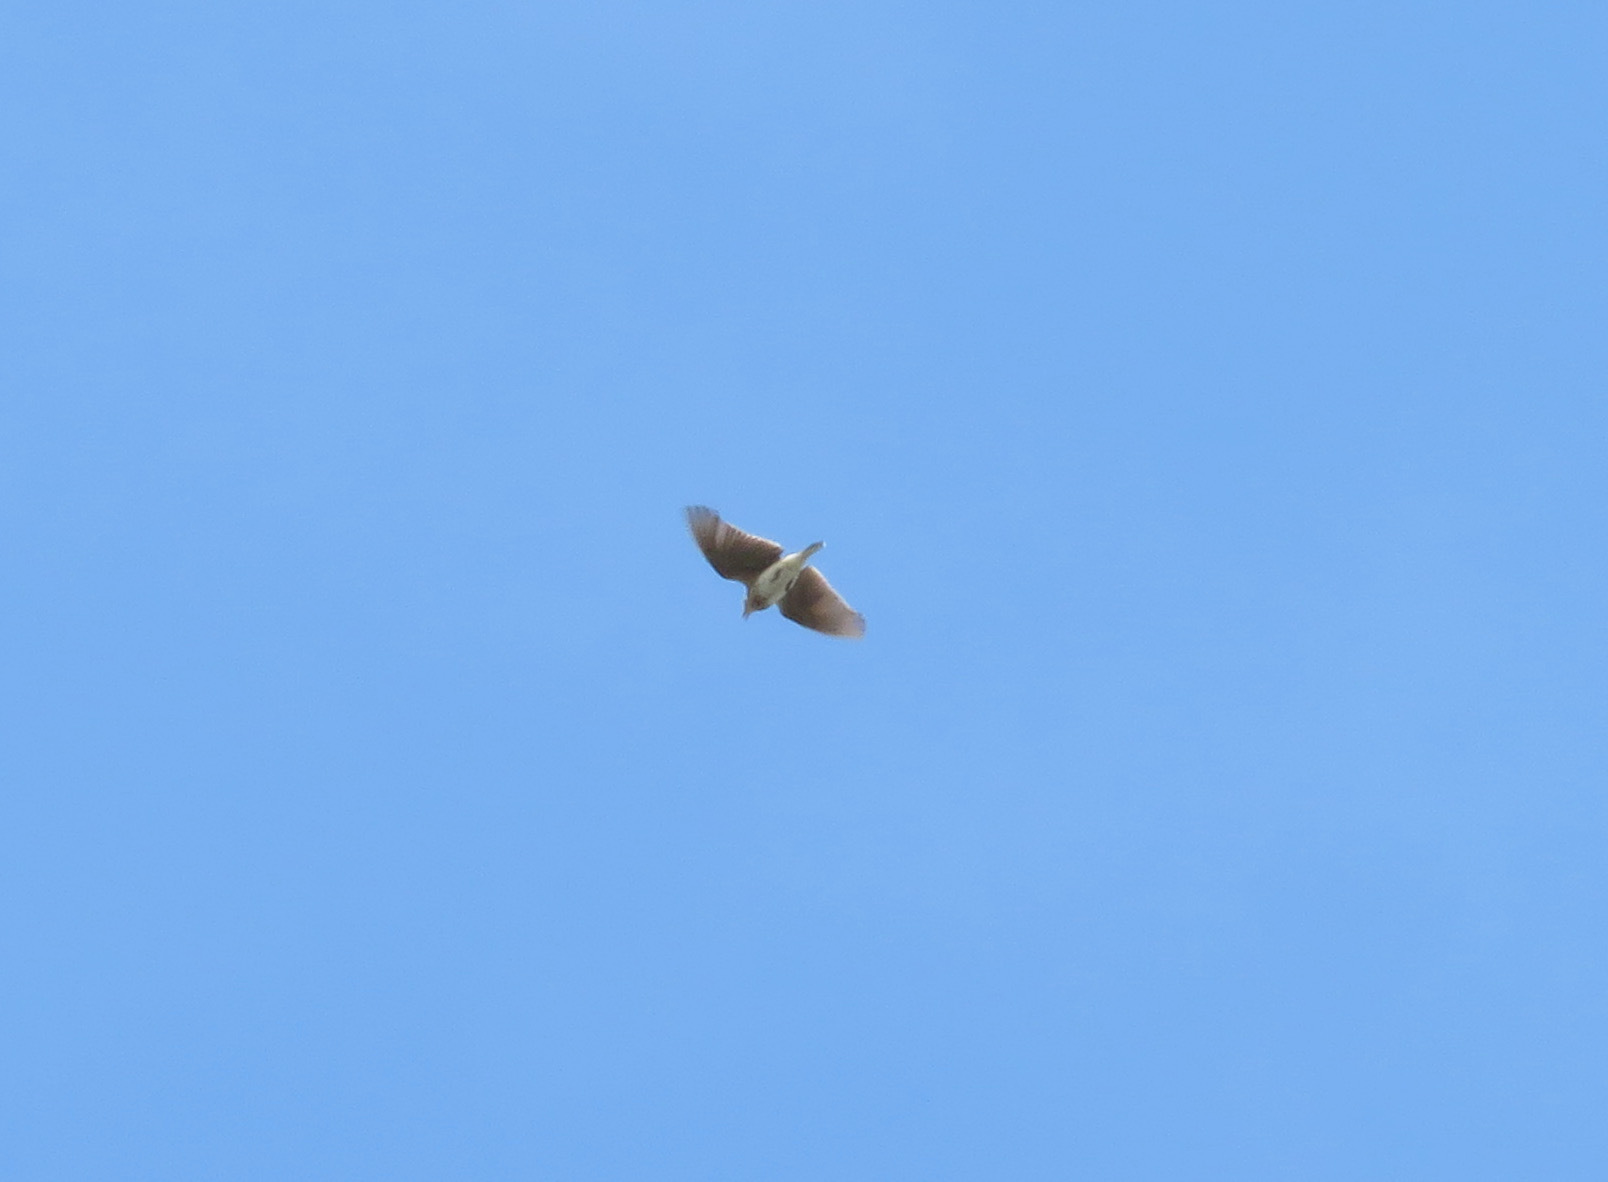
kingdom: Animalia
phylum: Chordata
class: Aves
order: Passeriformes
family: Alaudidae
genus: Alauda
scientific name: Alauda arvensis
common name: Eurasian skylark
